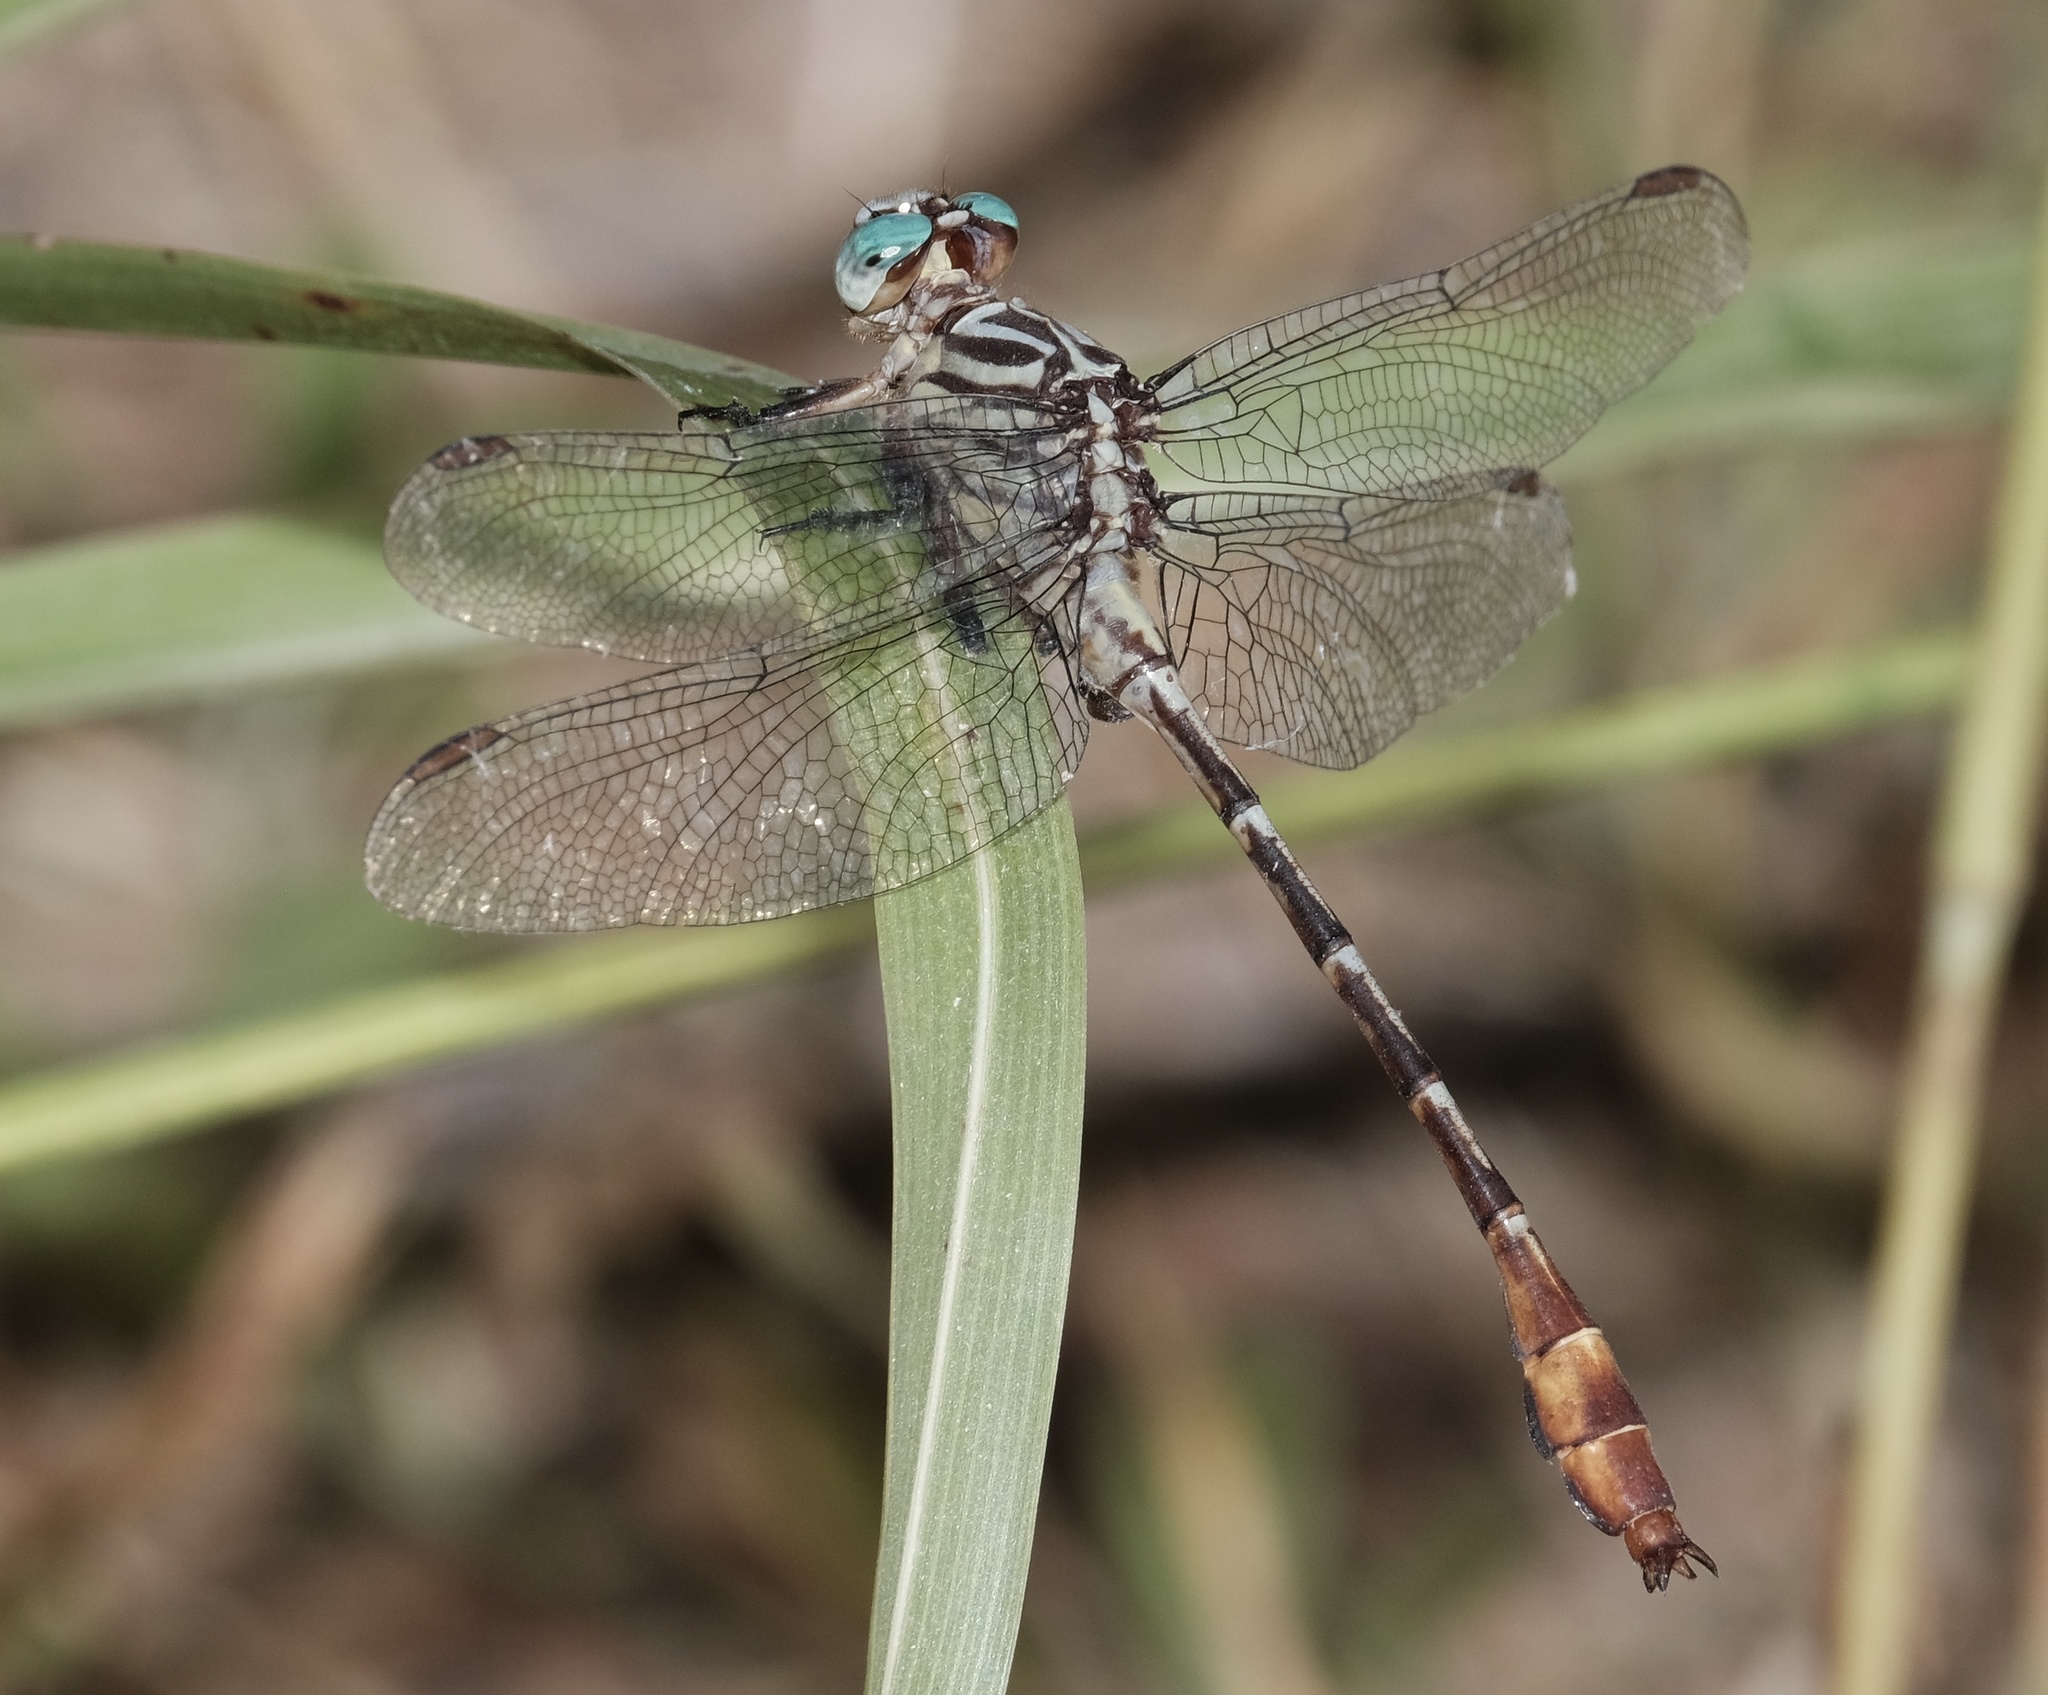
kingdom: Animalia
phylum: Arthropoda
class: Insecta
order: Odonata
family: Gomphidae
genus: Stylurus
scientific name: Stylurus plagiatus
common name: Russet-tipped clubtail
